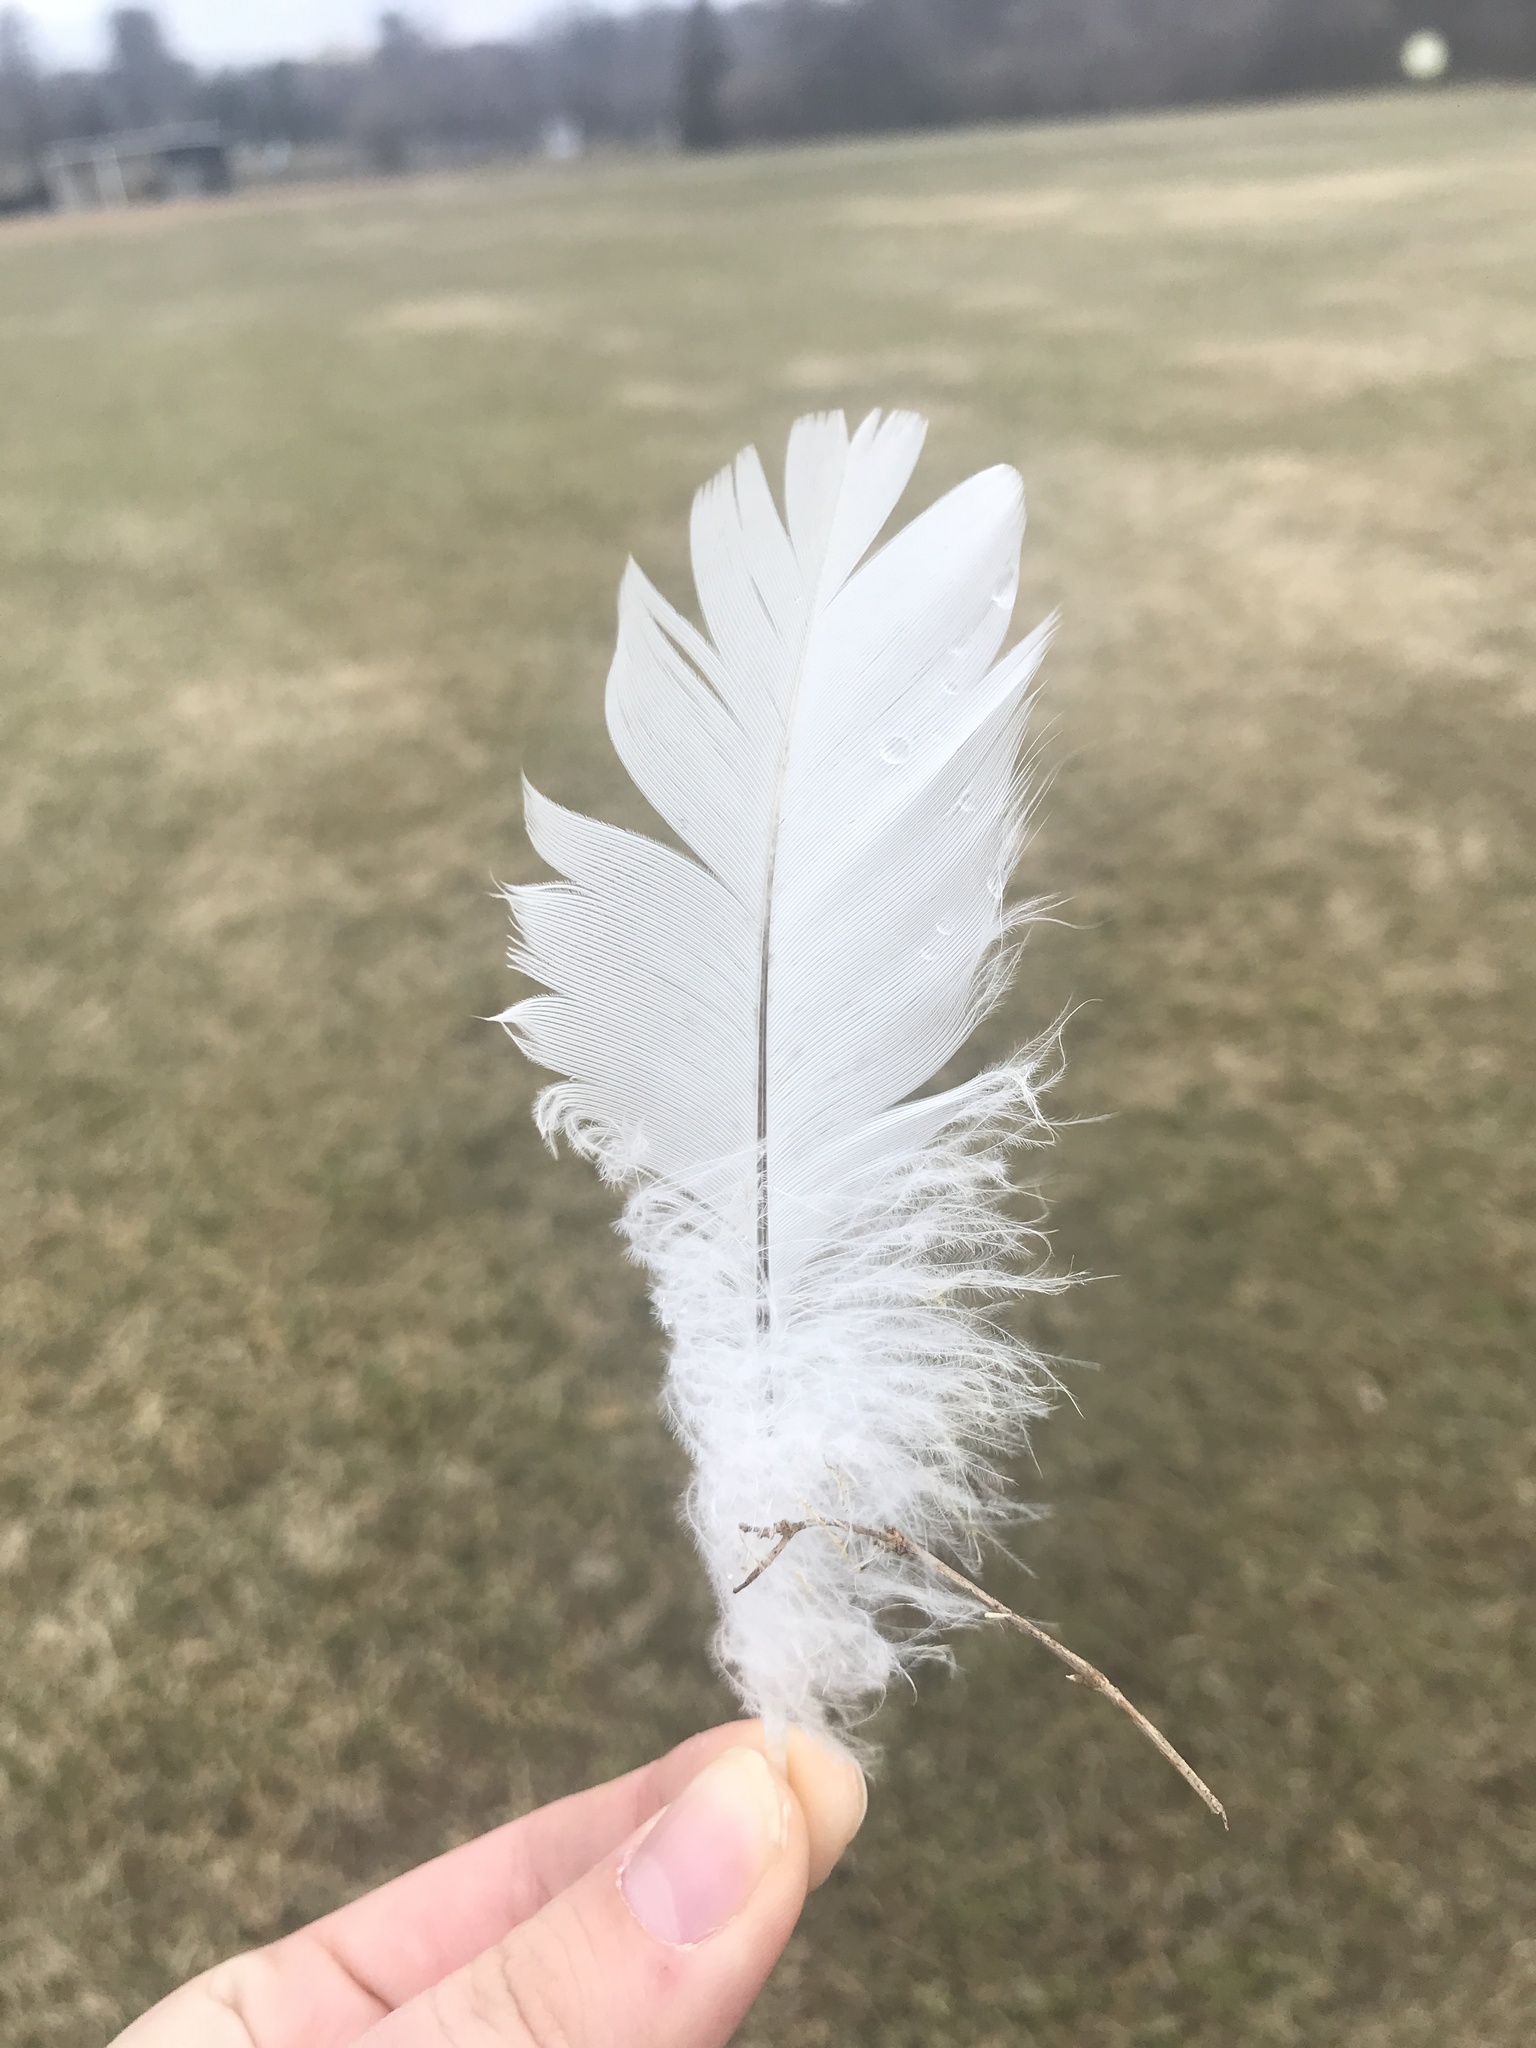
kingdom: Animalia
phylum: Chordata
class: Aves
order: Anseriformes
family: Anatidae
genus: Branta
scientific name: Branta canadensis
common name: Canada goose
